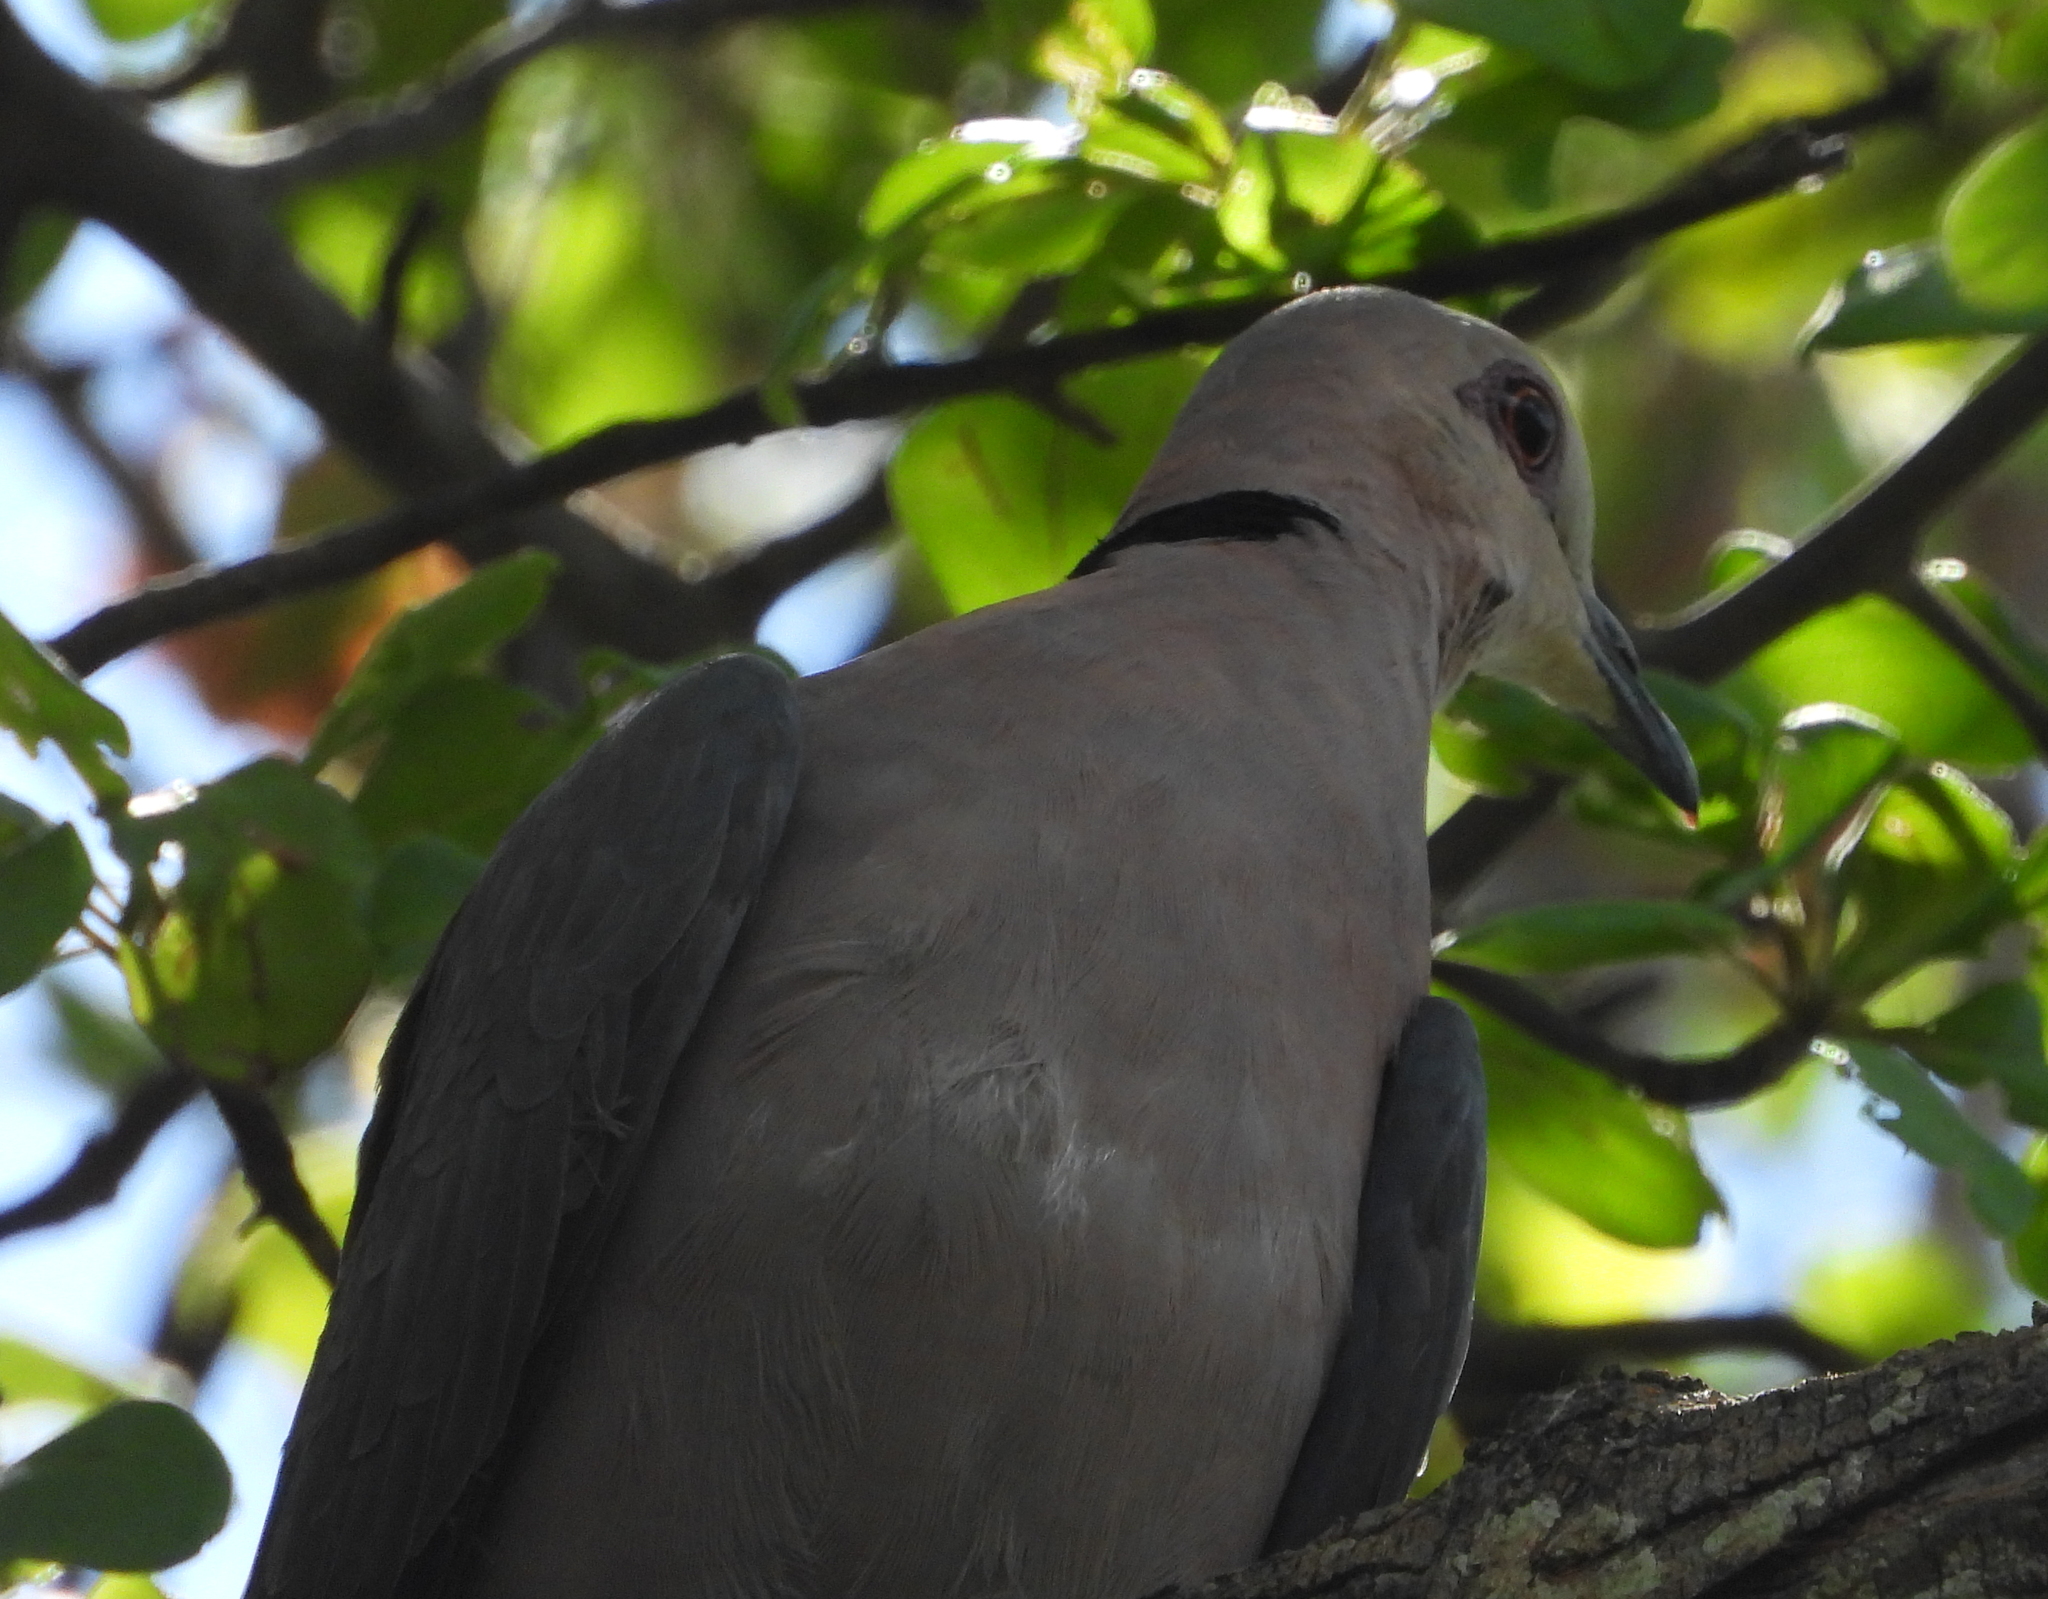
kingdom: Animalia
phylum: Chordata
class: Aves
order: Columbiformes
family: Columbidae
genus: Streptopelia
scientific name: Streptopelia semitorquata
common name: Red-eyed dove
